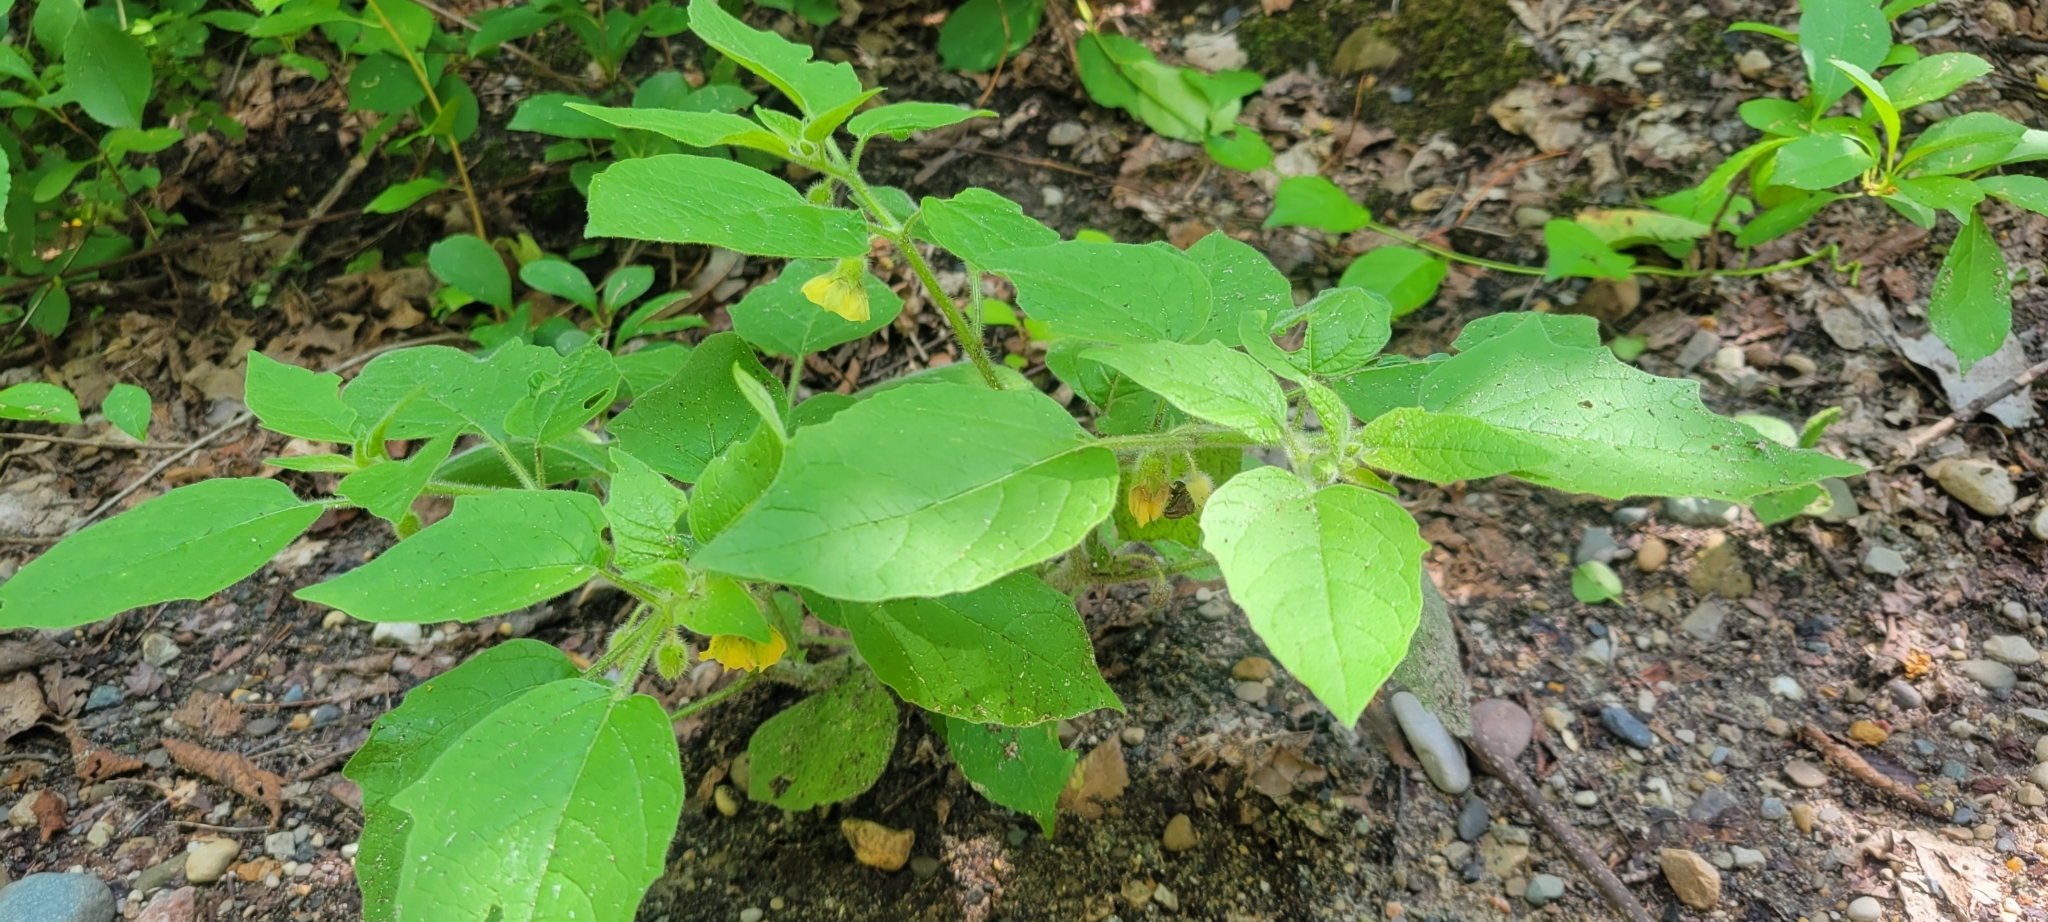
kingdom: Plantae
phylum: Tracheophyta
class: Magnoliopsida
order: Solanales
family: Solanaceae
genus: Physalis
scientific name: Physalis heterophylla
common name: Clammy ground-cherry
